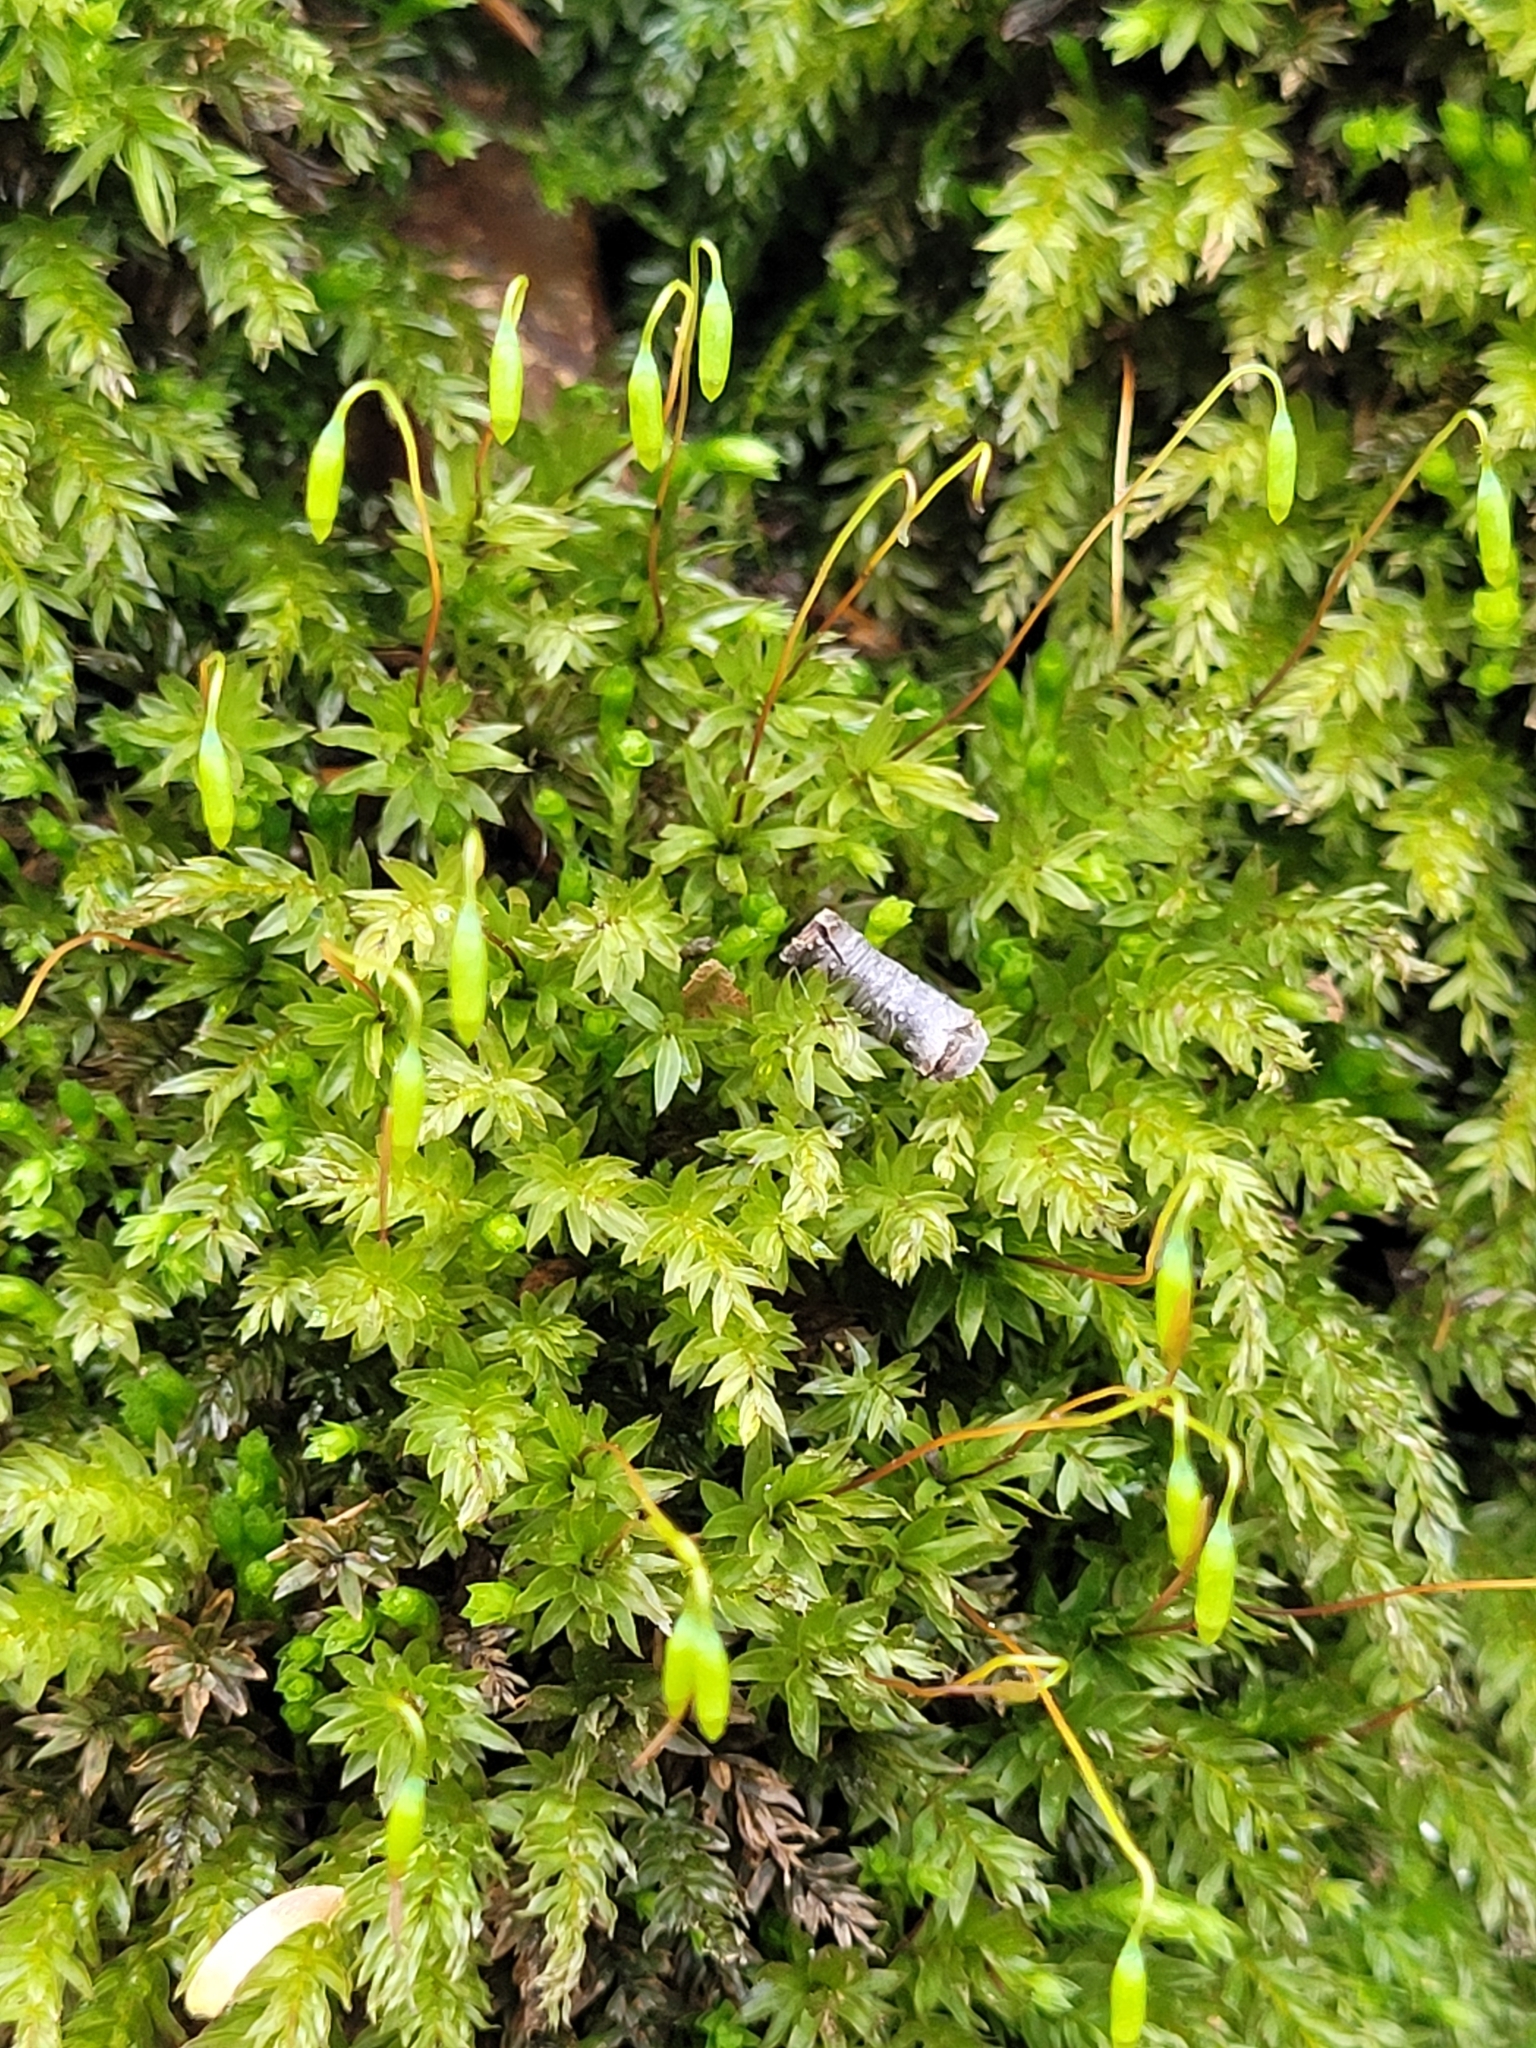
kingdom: Plantae
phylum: Bryophyta
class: Bryopsida
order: Bryales
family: Mniaceae
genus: Mnium
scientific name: Mnium hornum
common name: Swan's-neck leafy moss
